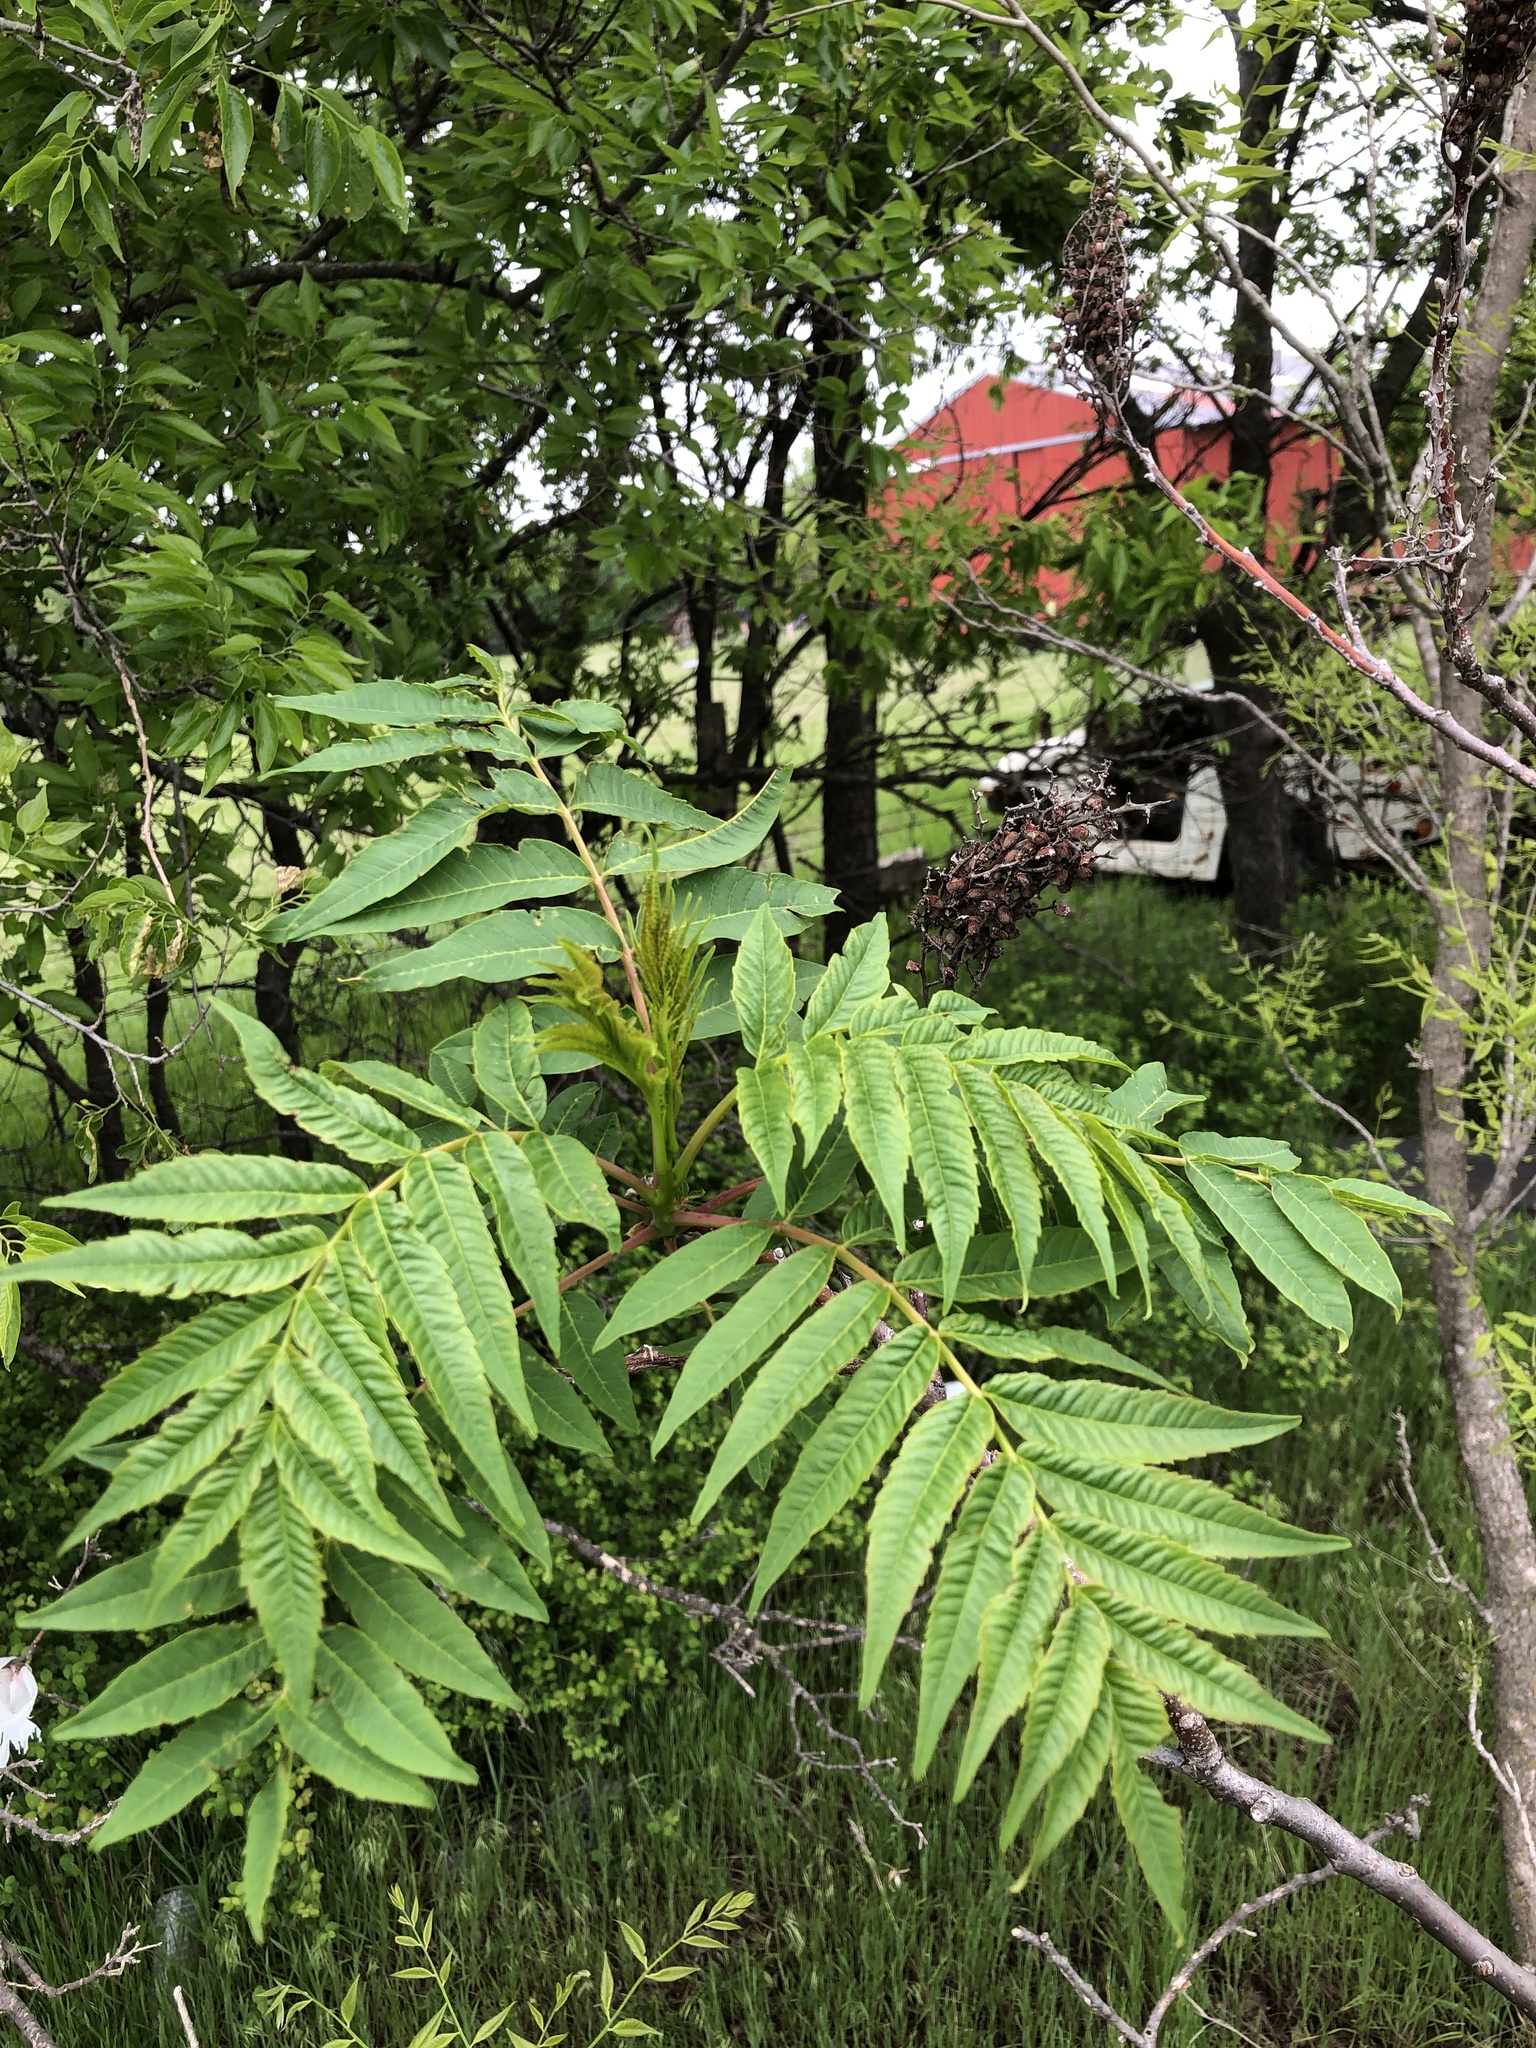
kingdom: Plantae
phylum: Tracheophyta
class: Magnoliopsida
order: Sapindales
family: Anacardiaceae
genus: Rhus
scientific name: Rhus glabra
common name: Scarlet sumac
